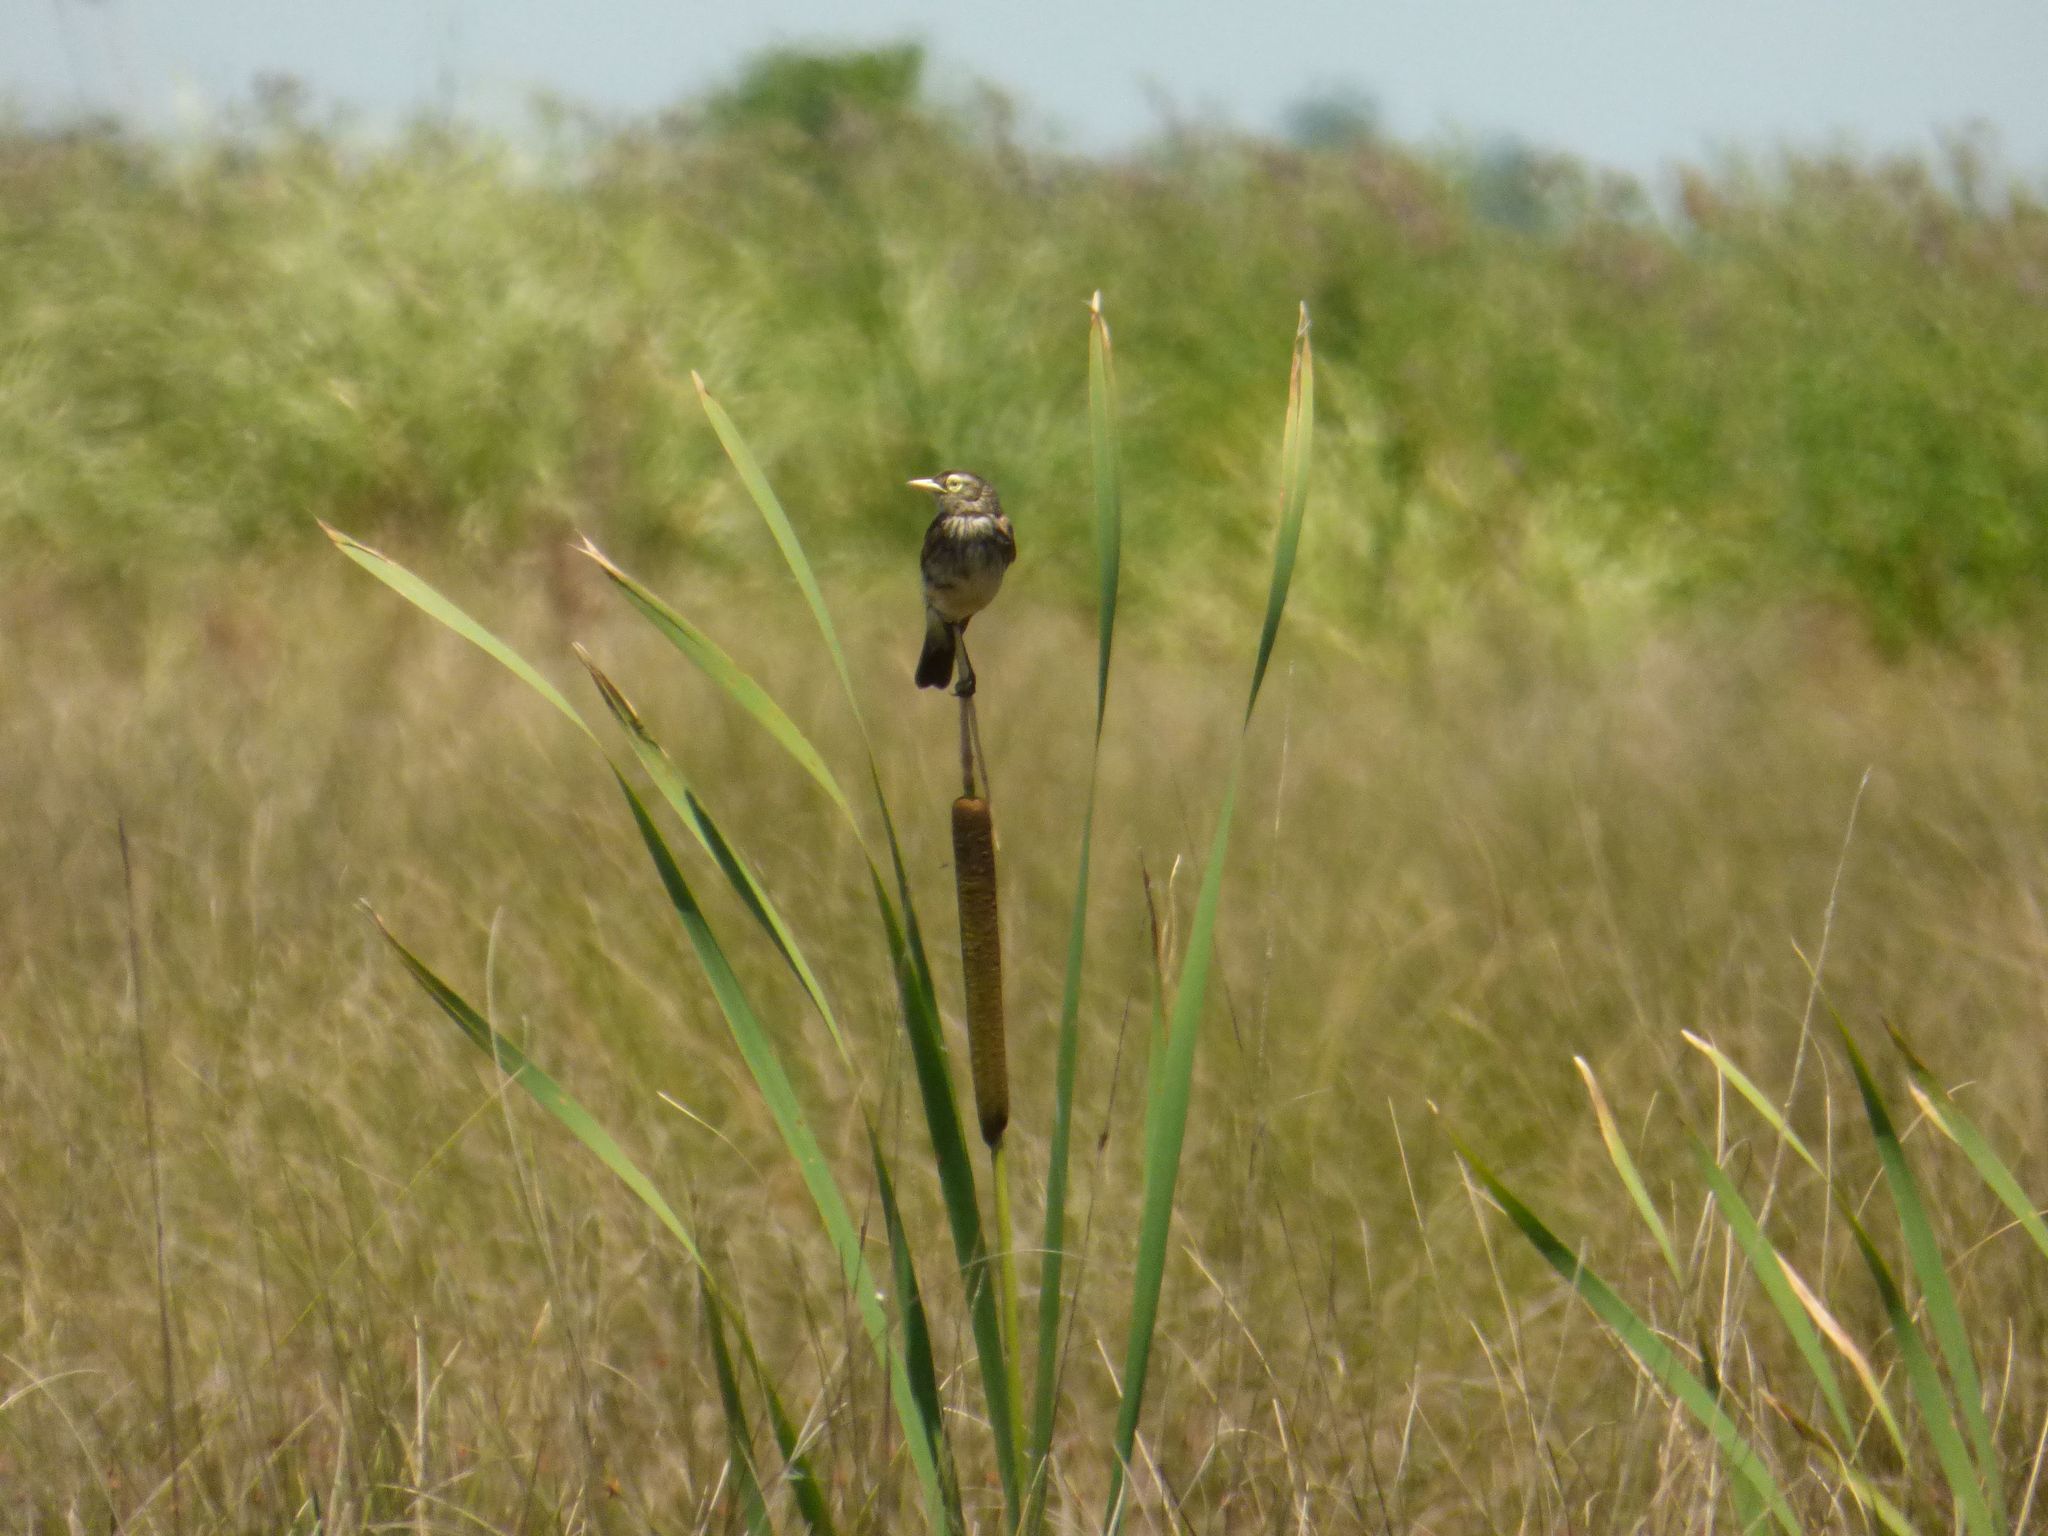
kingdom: Animalia
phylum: Chordata
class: Aves
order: Passeriformes
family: Tyrannidae
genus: Hymenops
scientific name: Hymenops perspicillatus
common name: Spectacled tyrant
